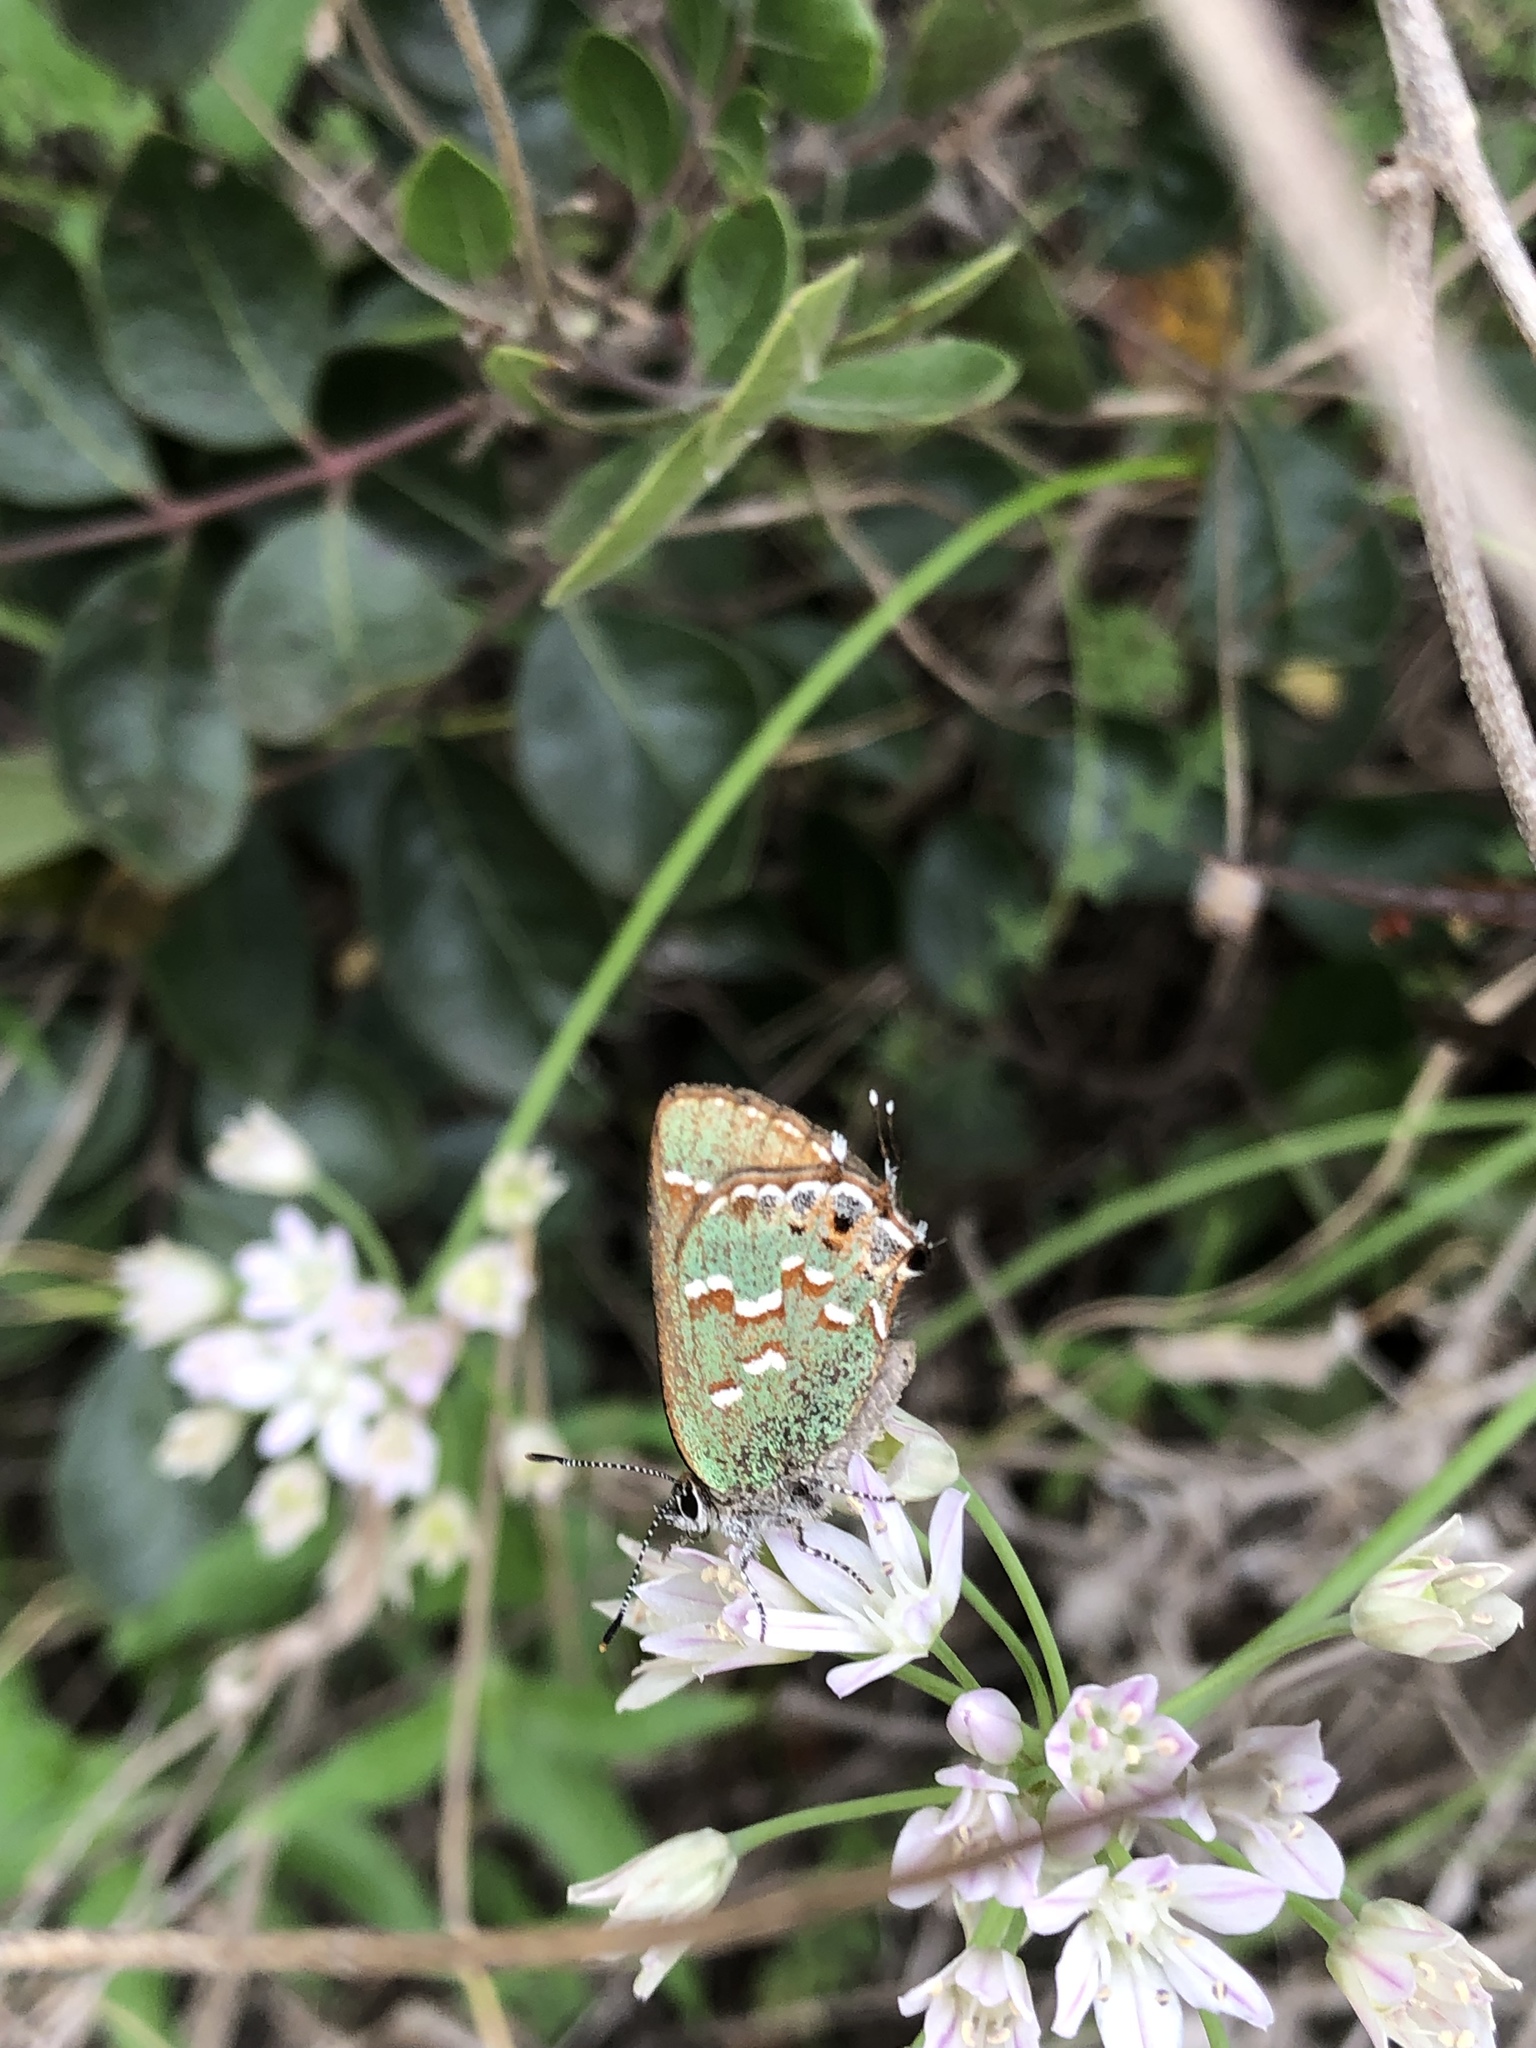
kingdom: Animalia
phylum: Arthropoda
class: Insecta
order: Lepidoptera
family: Lycaenidae
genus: Mitoura
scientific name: Mitoura gryneus
